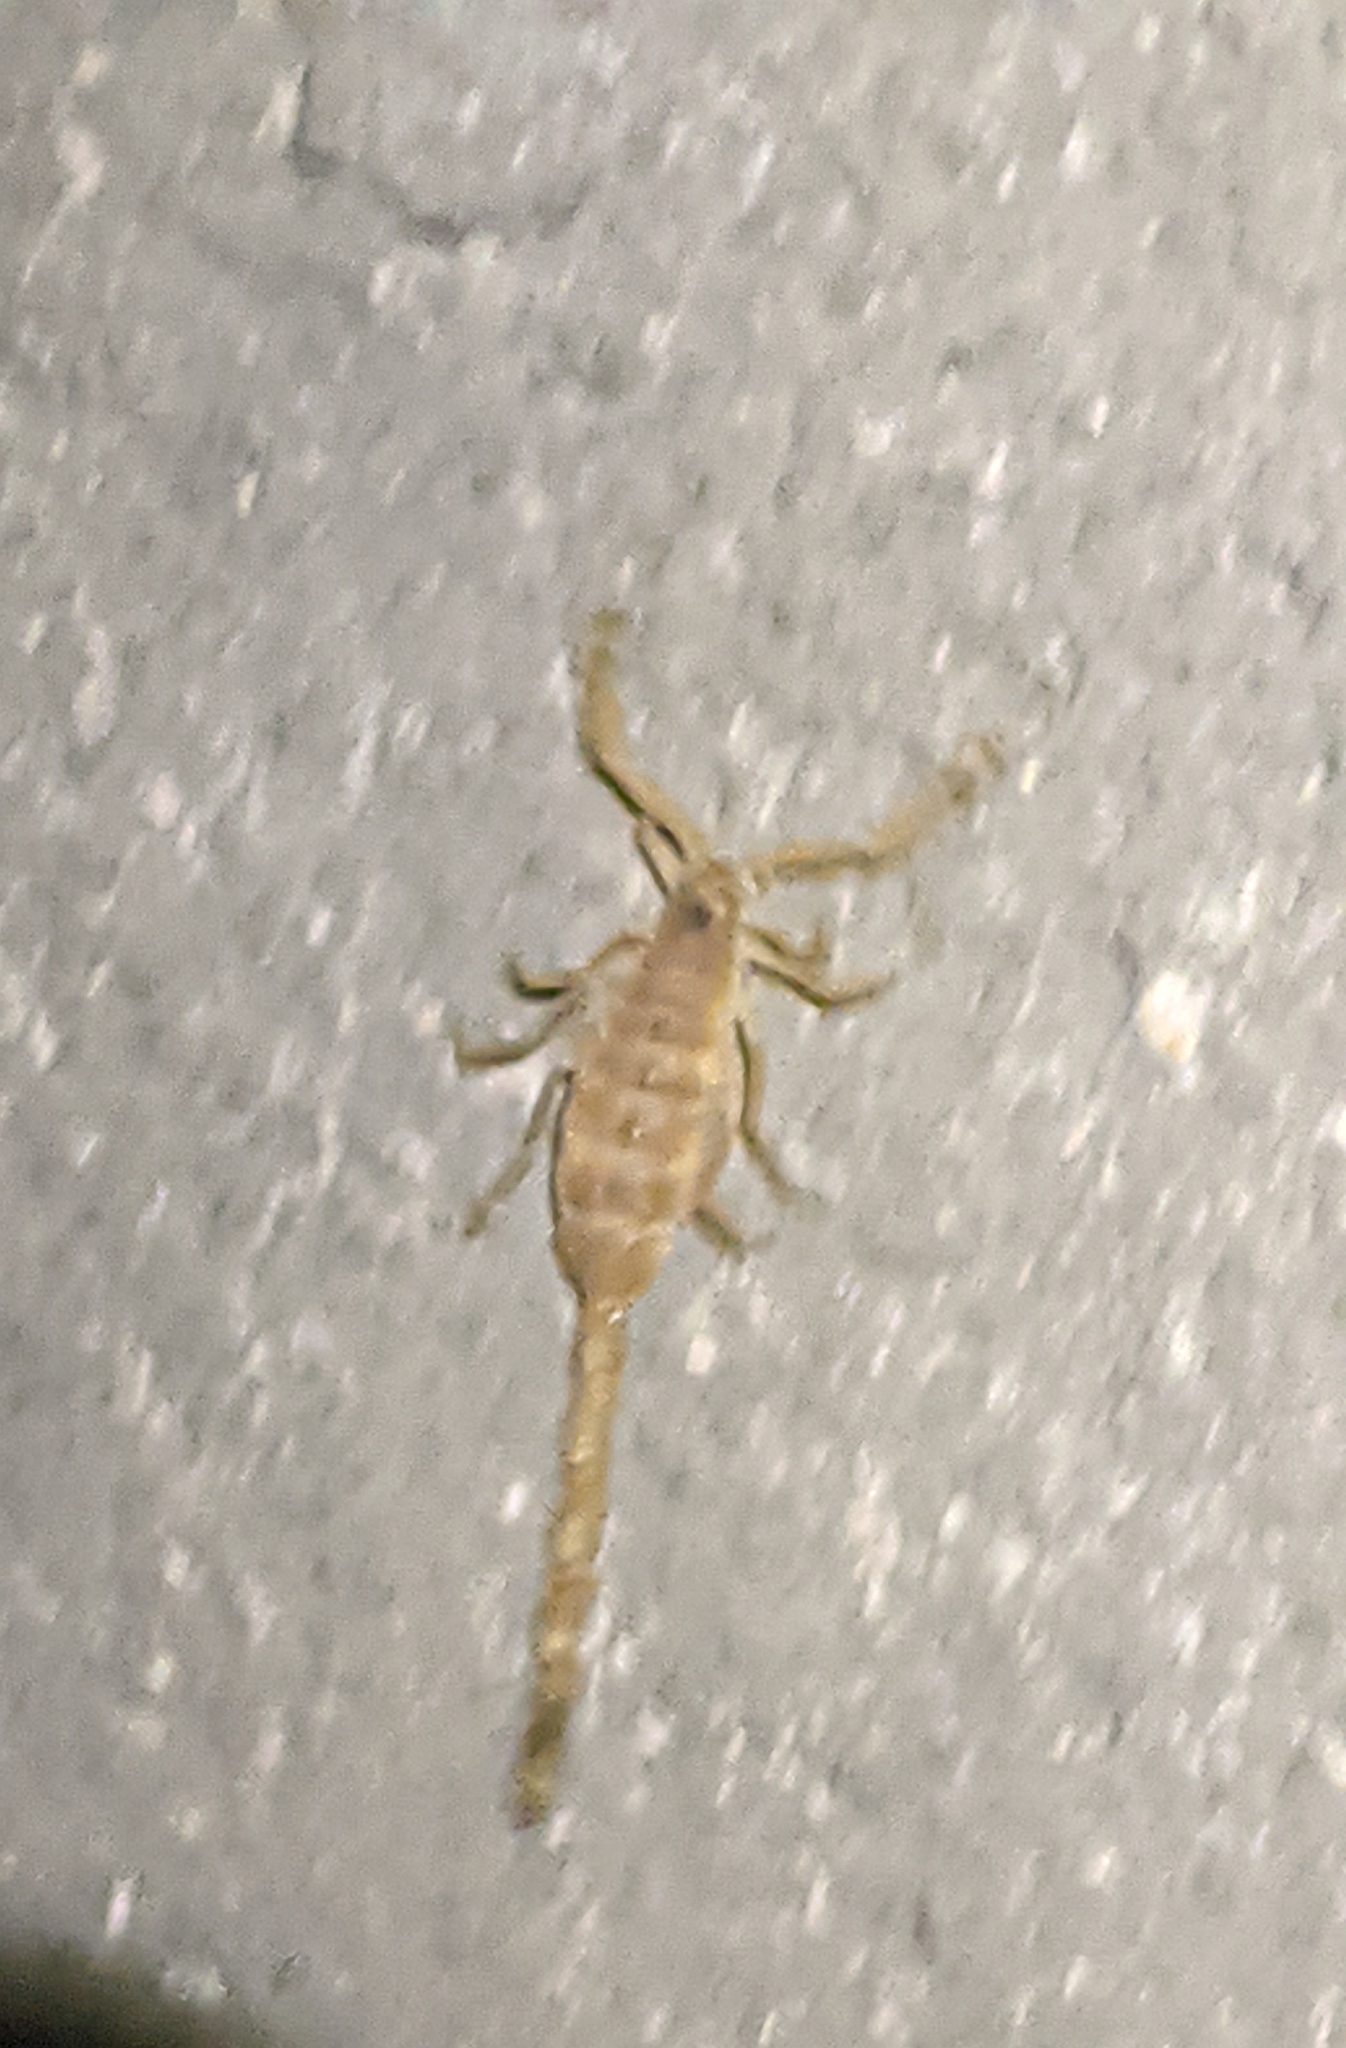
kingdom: Animalia
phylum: Arthropoda
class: Arachnida
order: Scorpiones
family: Buthidae
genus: Centruroides
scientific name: Centruroides vittatus
